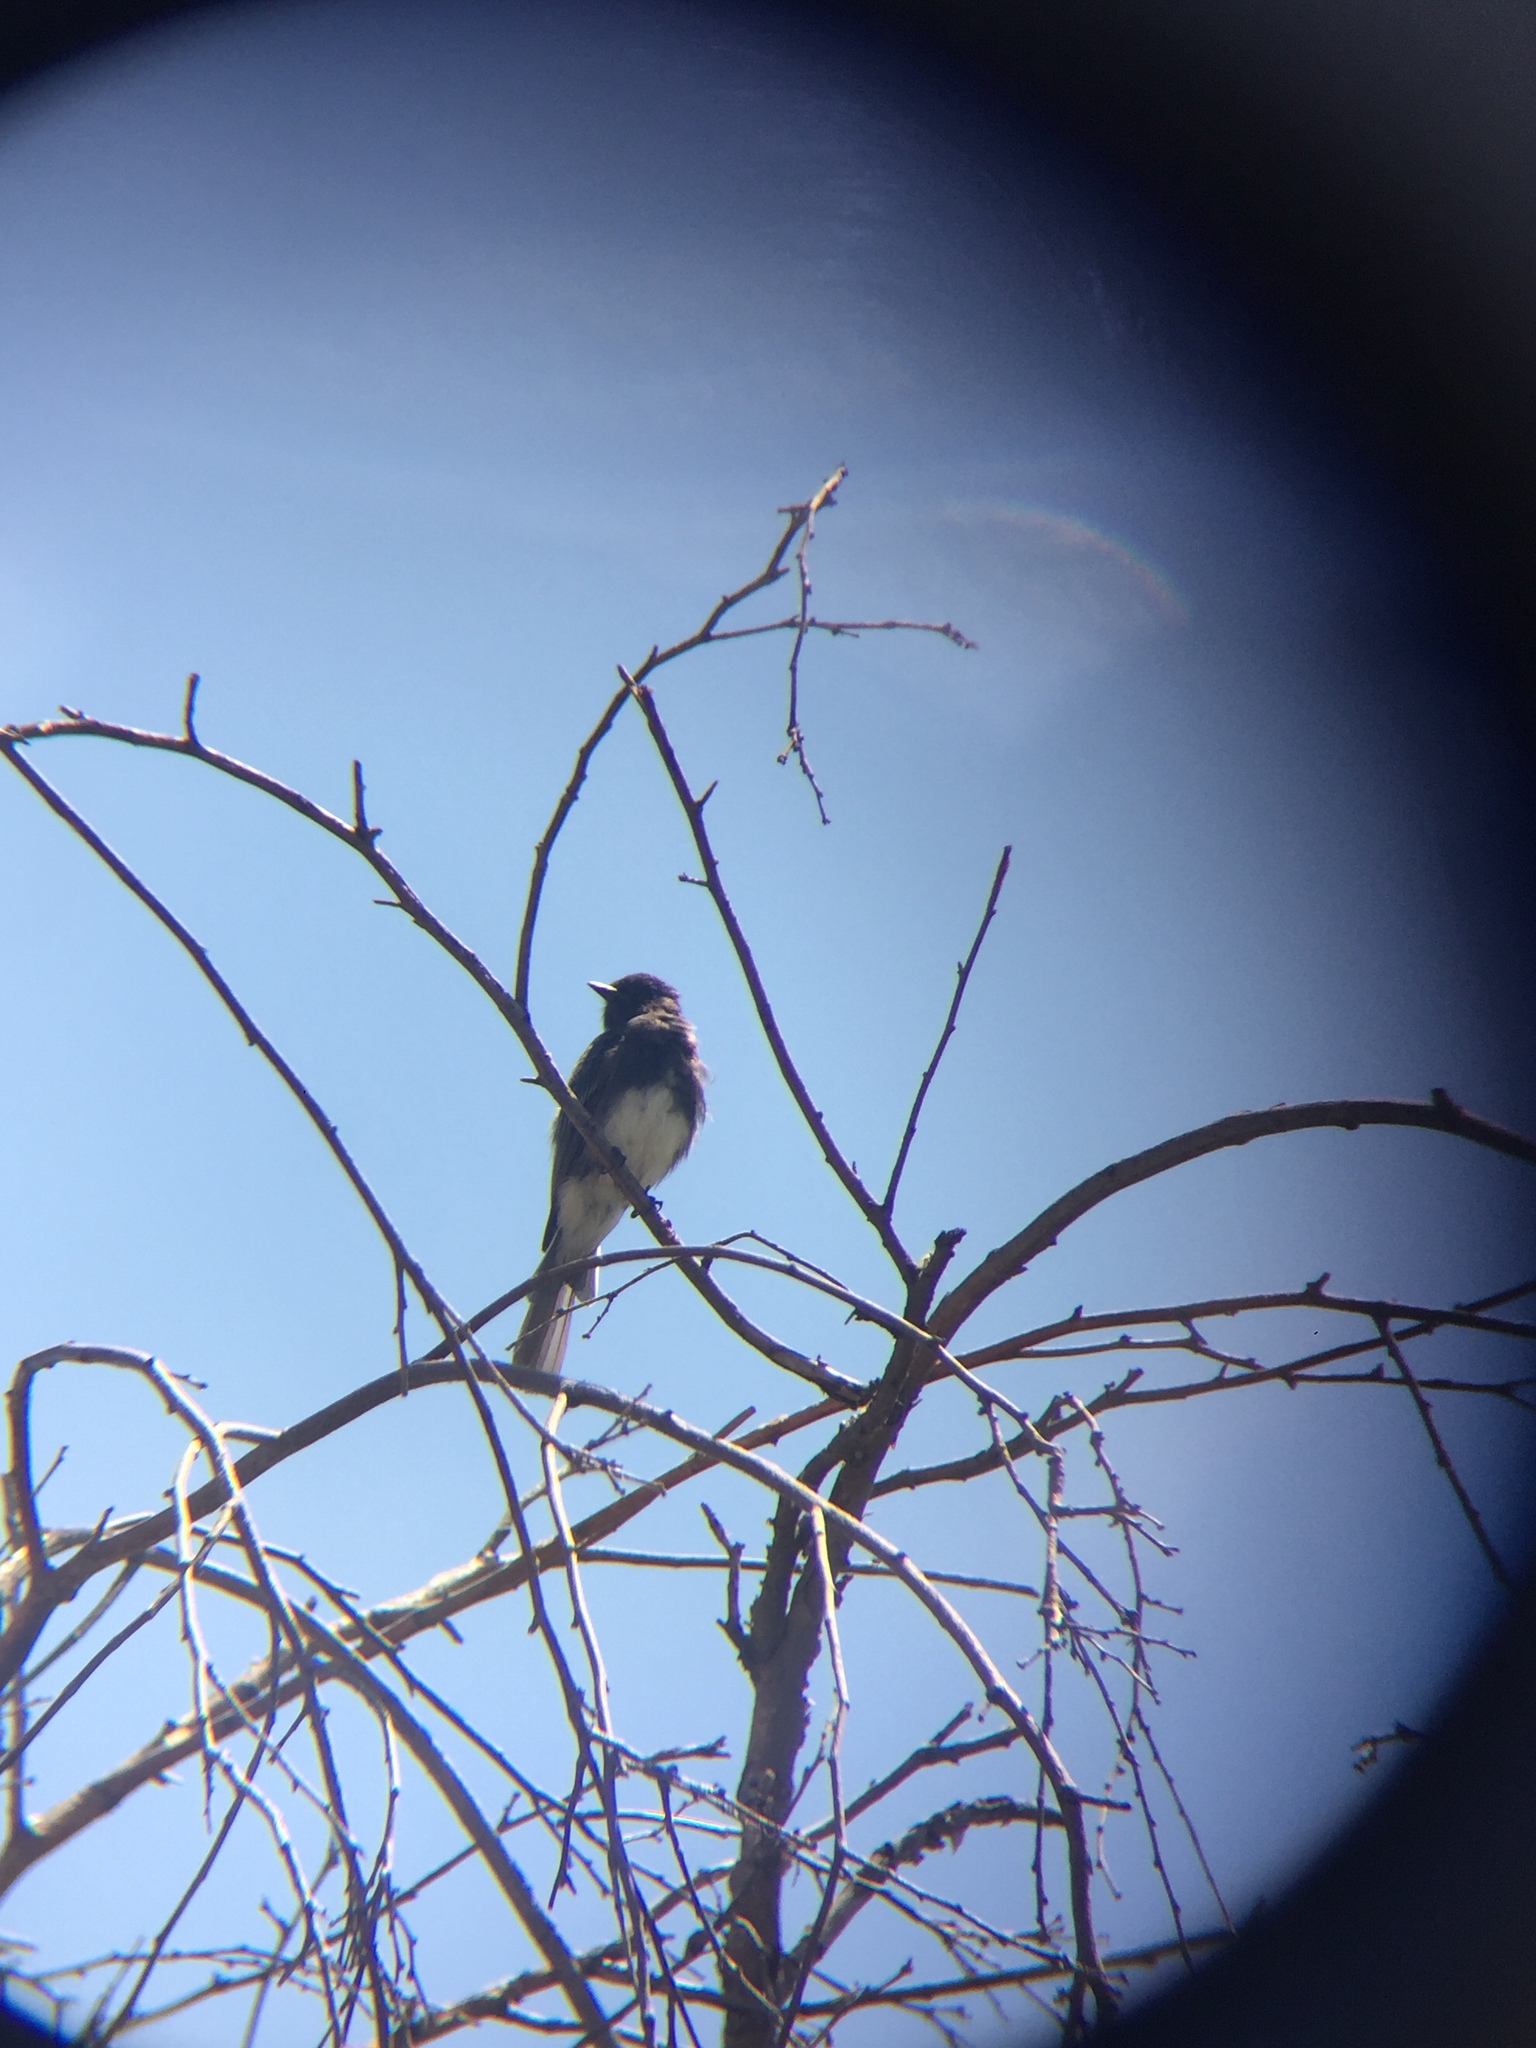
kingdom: Animalia
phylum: Chordata
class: Aves
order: Passeriformes
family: Tyrannidae
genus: Sayornis
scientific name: Sayornis nigricans
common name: Black phoebe
